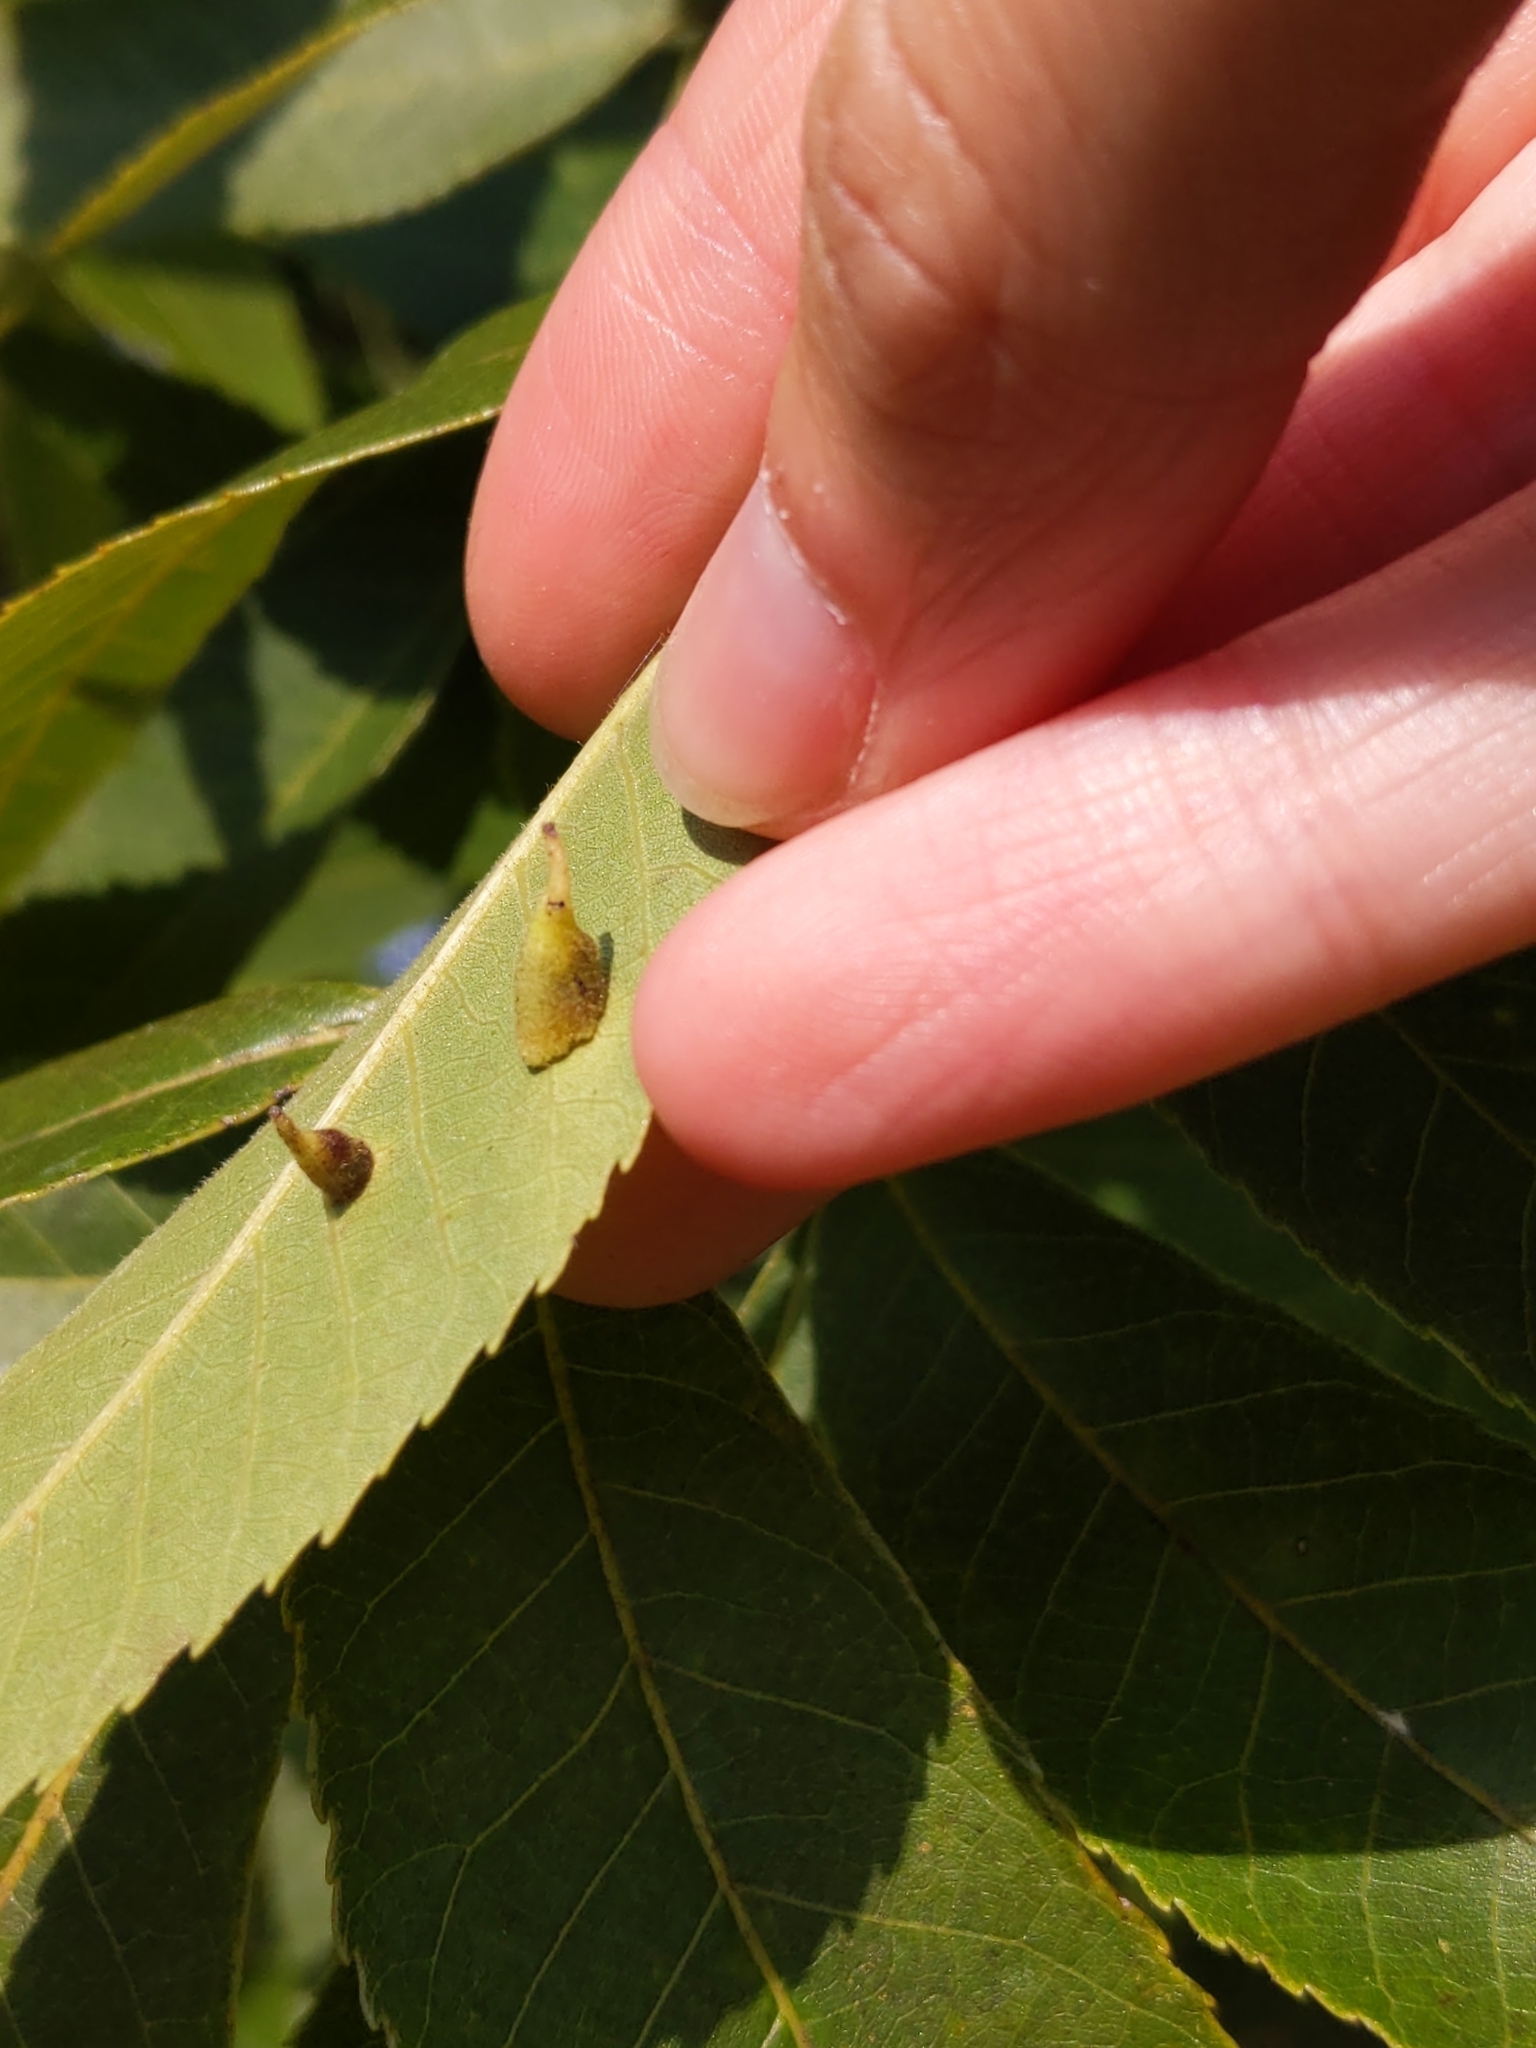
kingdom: Animalia
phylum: Arthropoda
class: Insecta
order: Diptera
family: Cecidomyiidae
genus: Caryomyia
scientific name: Caryomyia inclinata
